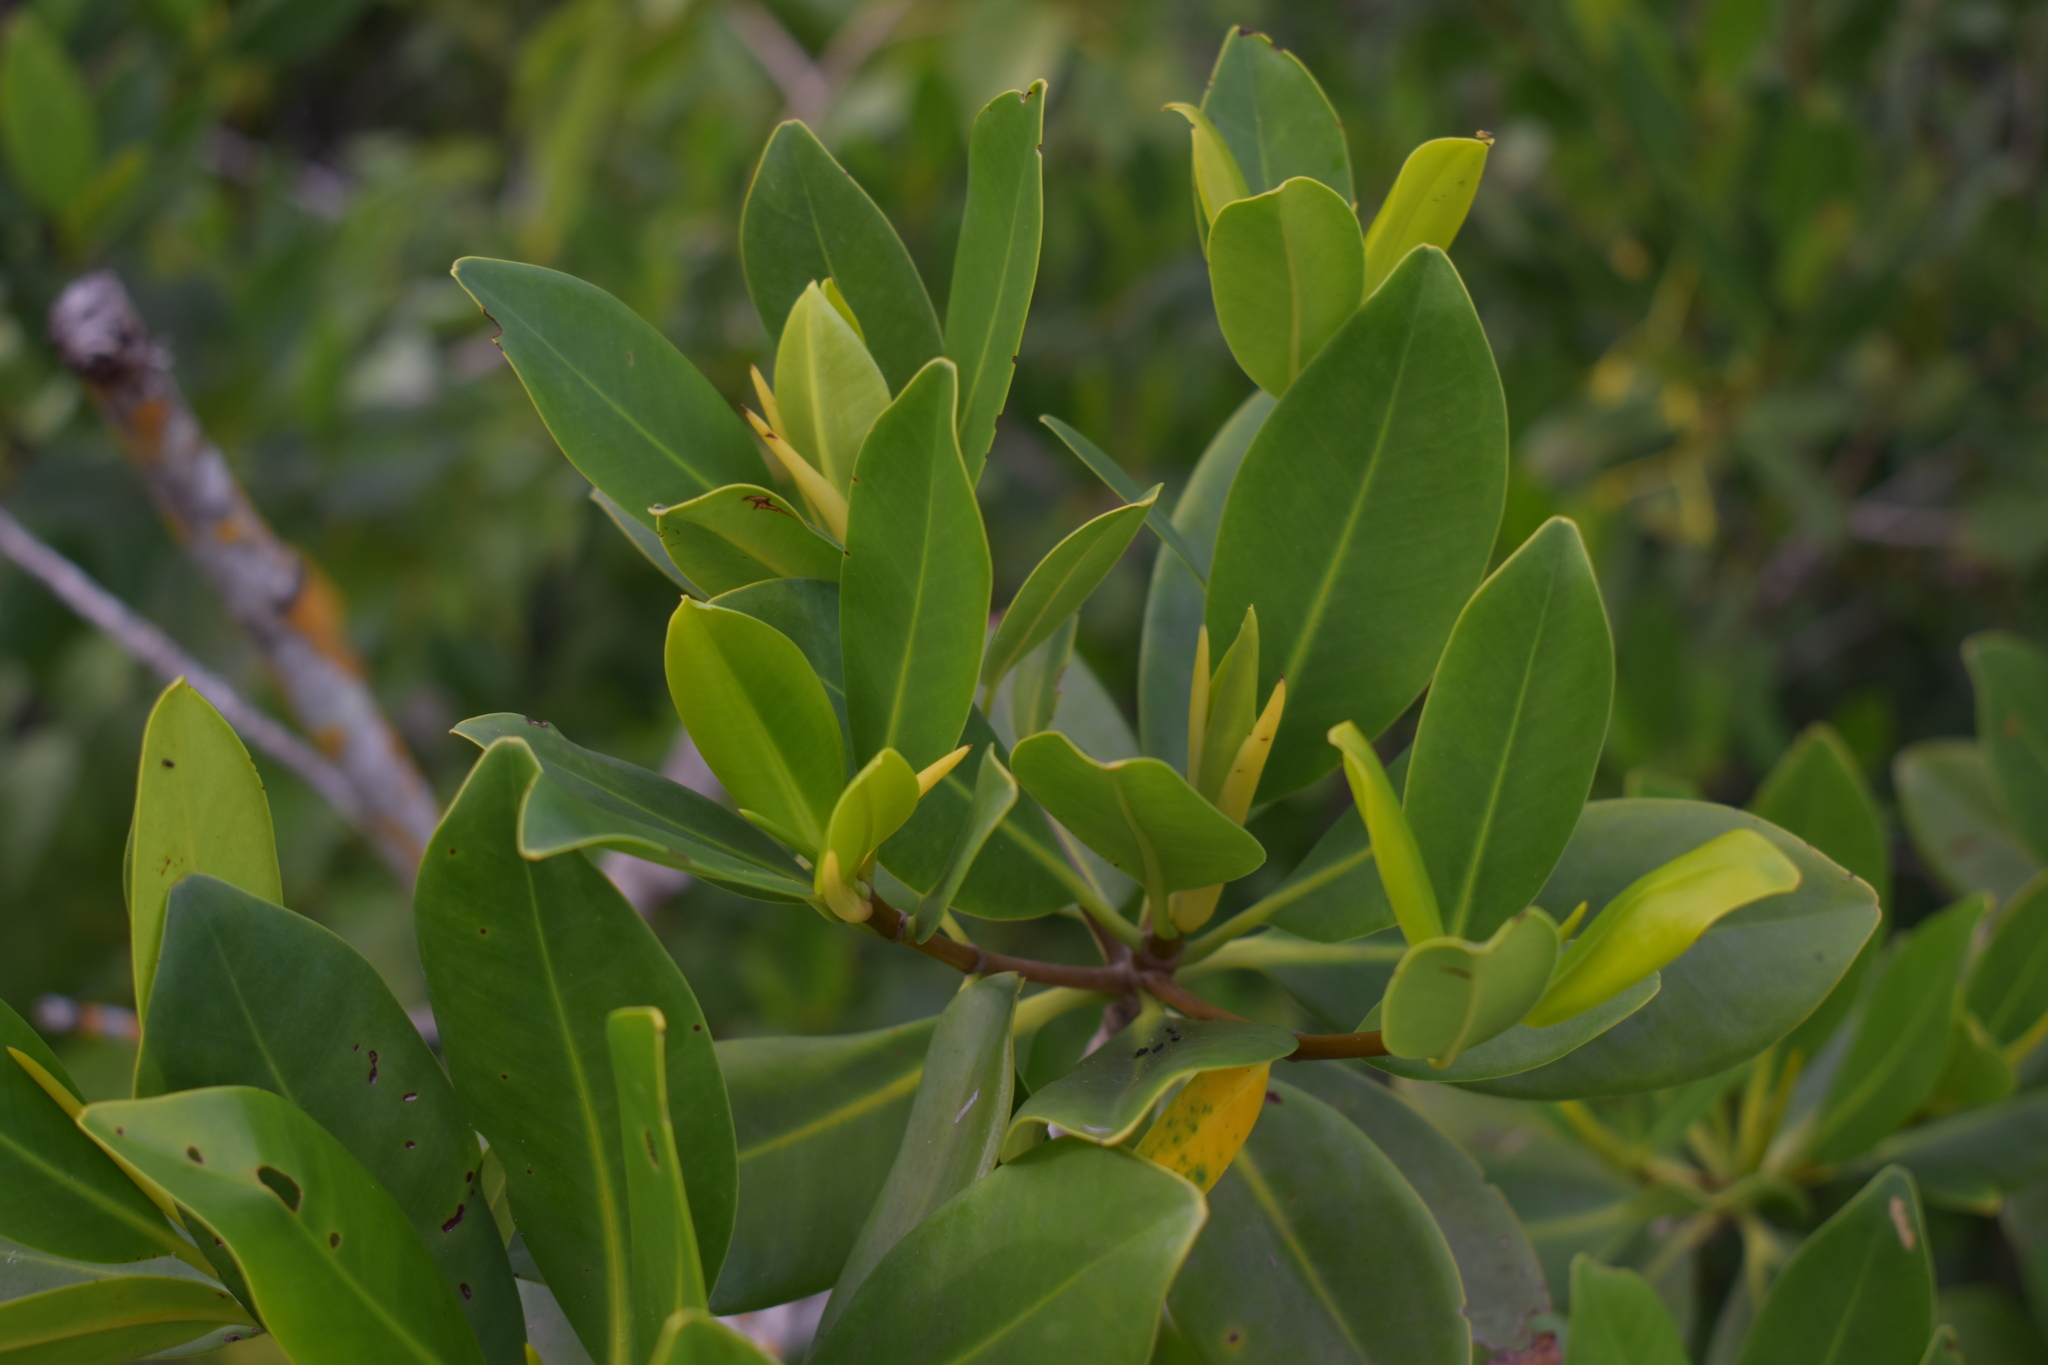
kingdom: Plantae
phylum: Tracheophyta
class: Magnoliopsida
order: Malpighiales
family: Rhizophoraceae
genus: Rhizophora
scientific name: Rhizophora mangle
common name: Red mangrove
